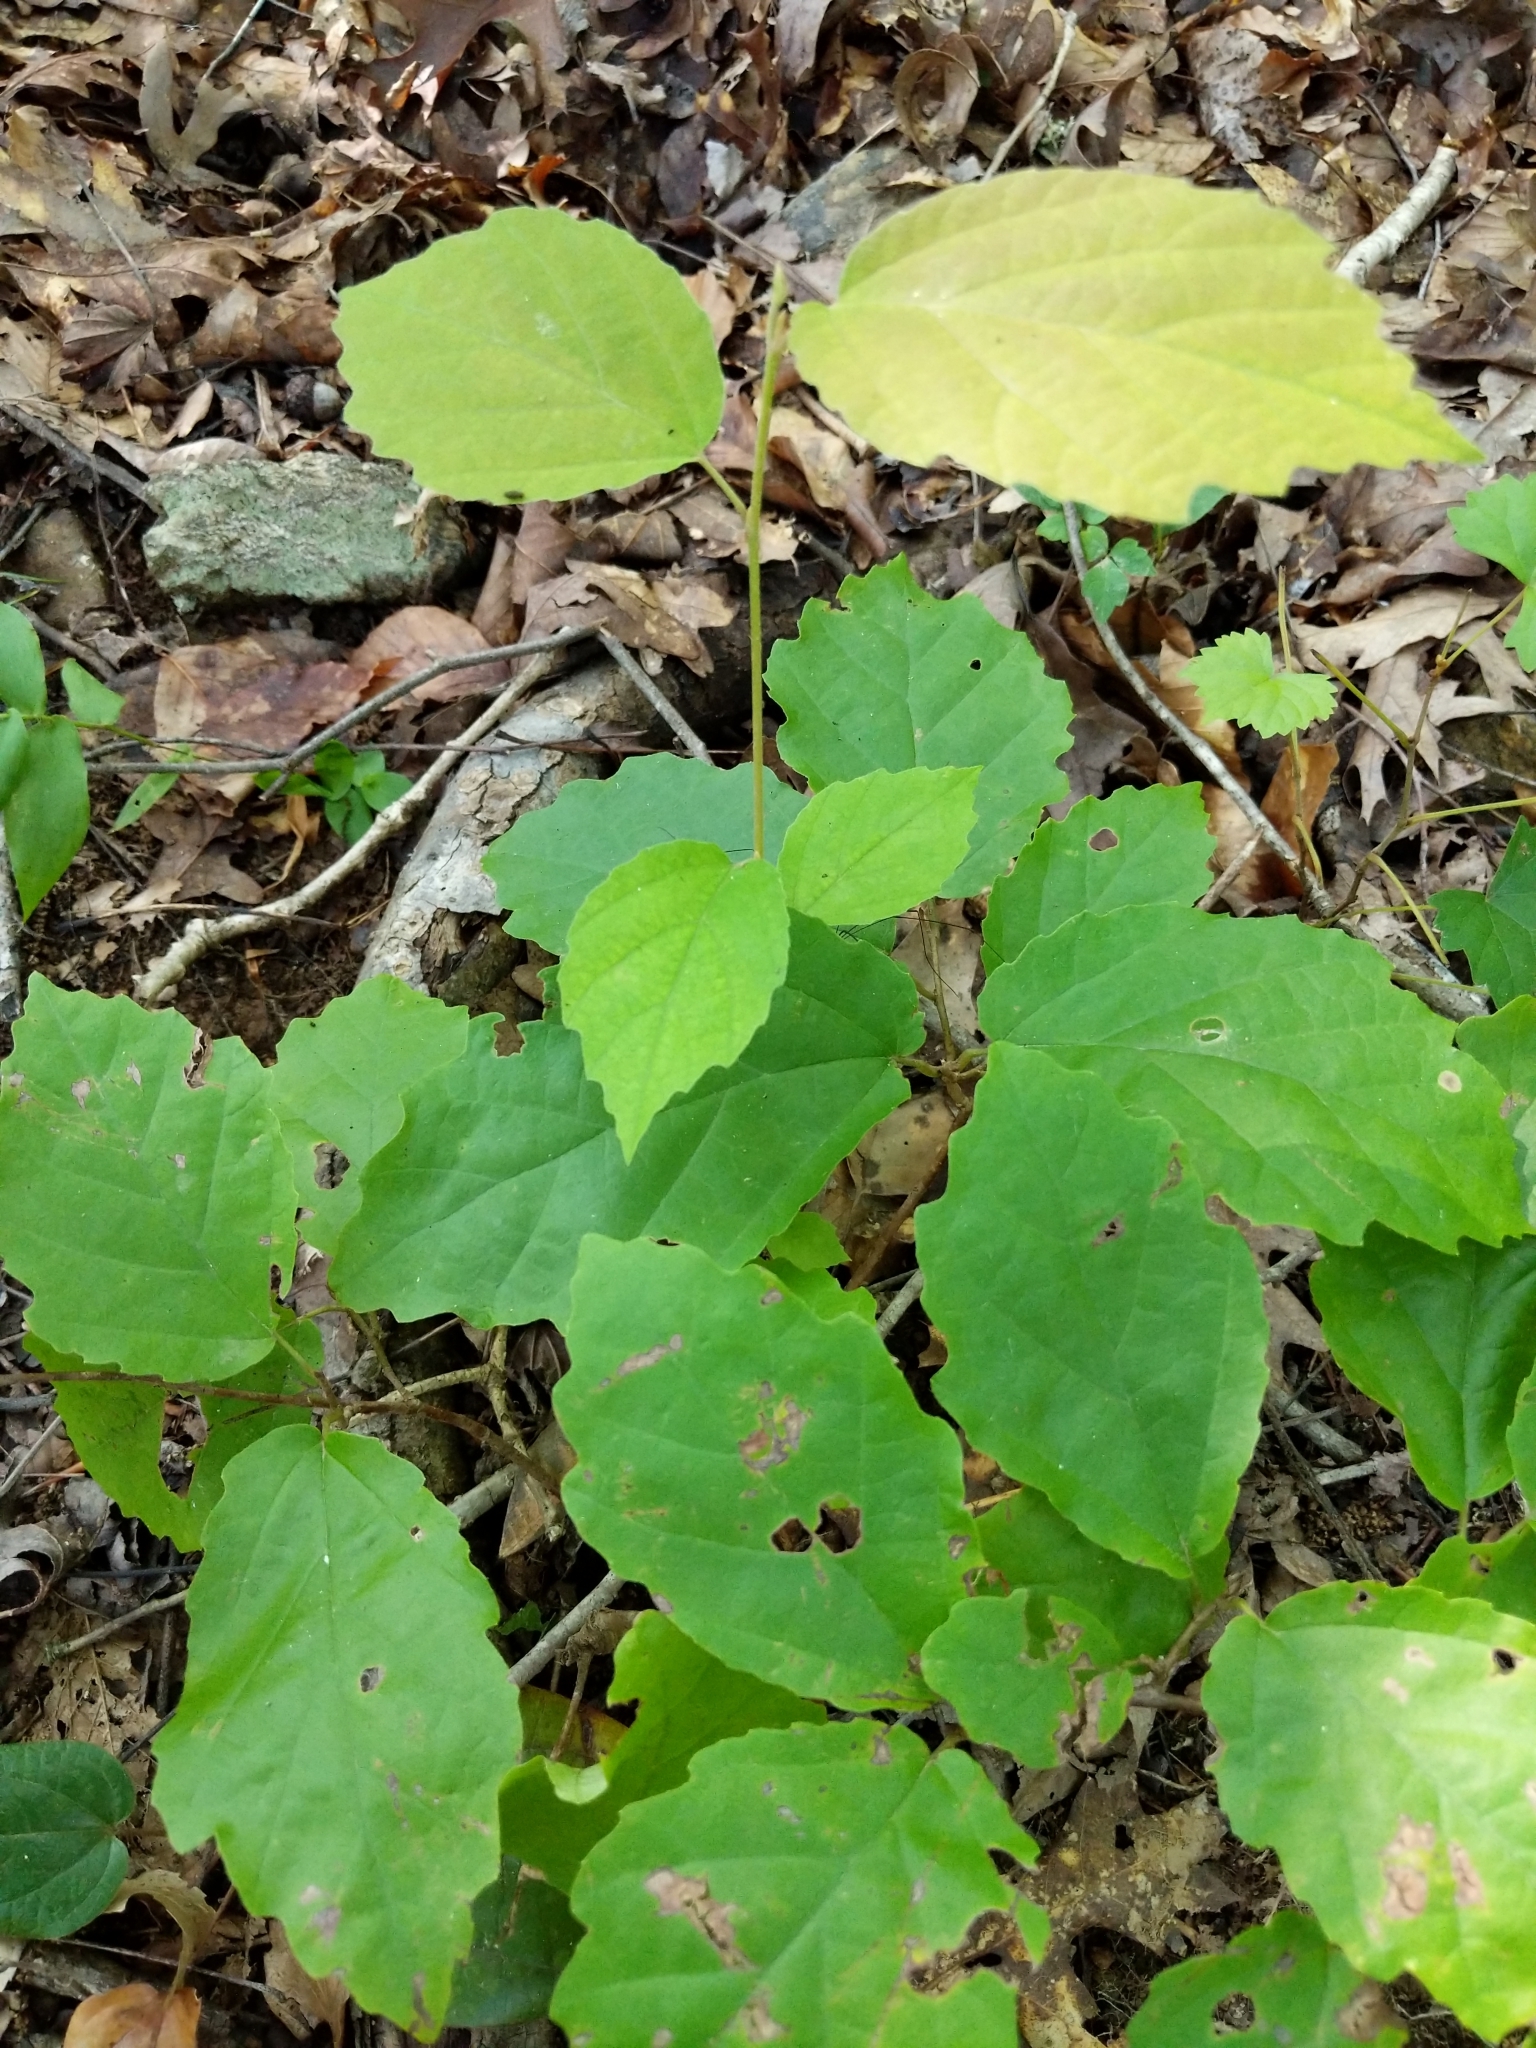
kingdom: Plantae
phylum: Tracheophyta
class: Magnoliopsida
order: Saxifragales
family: Hamamelidaceae
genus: Hamamelis
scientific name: Hamamelis virginiana
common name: Witch-hazel
